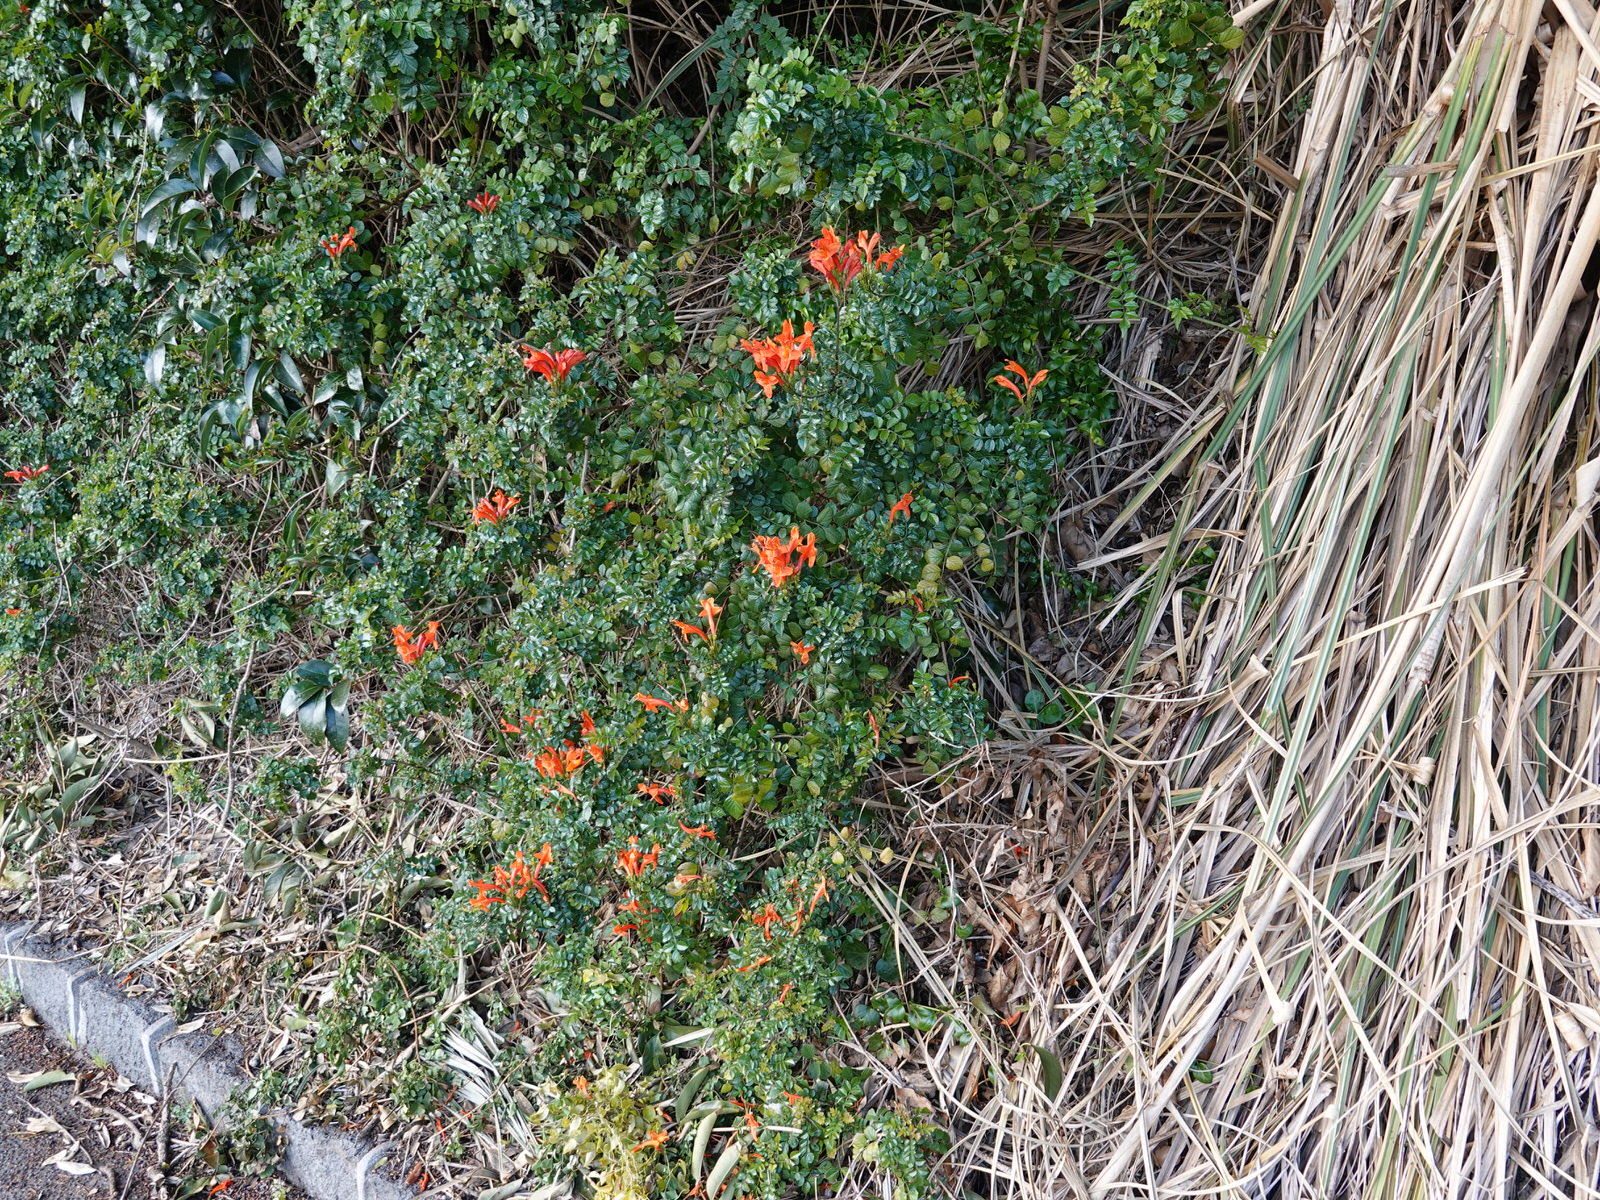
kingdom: Plantae
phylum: Tracheophyta
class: Magnoliopsida
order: Lamiales
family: Bignoniaceae
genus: Tecomaria
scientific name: Tecomaria capensis
